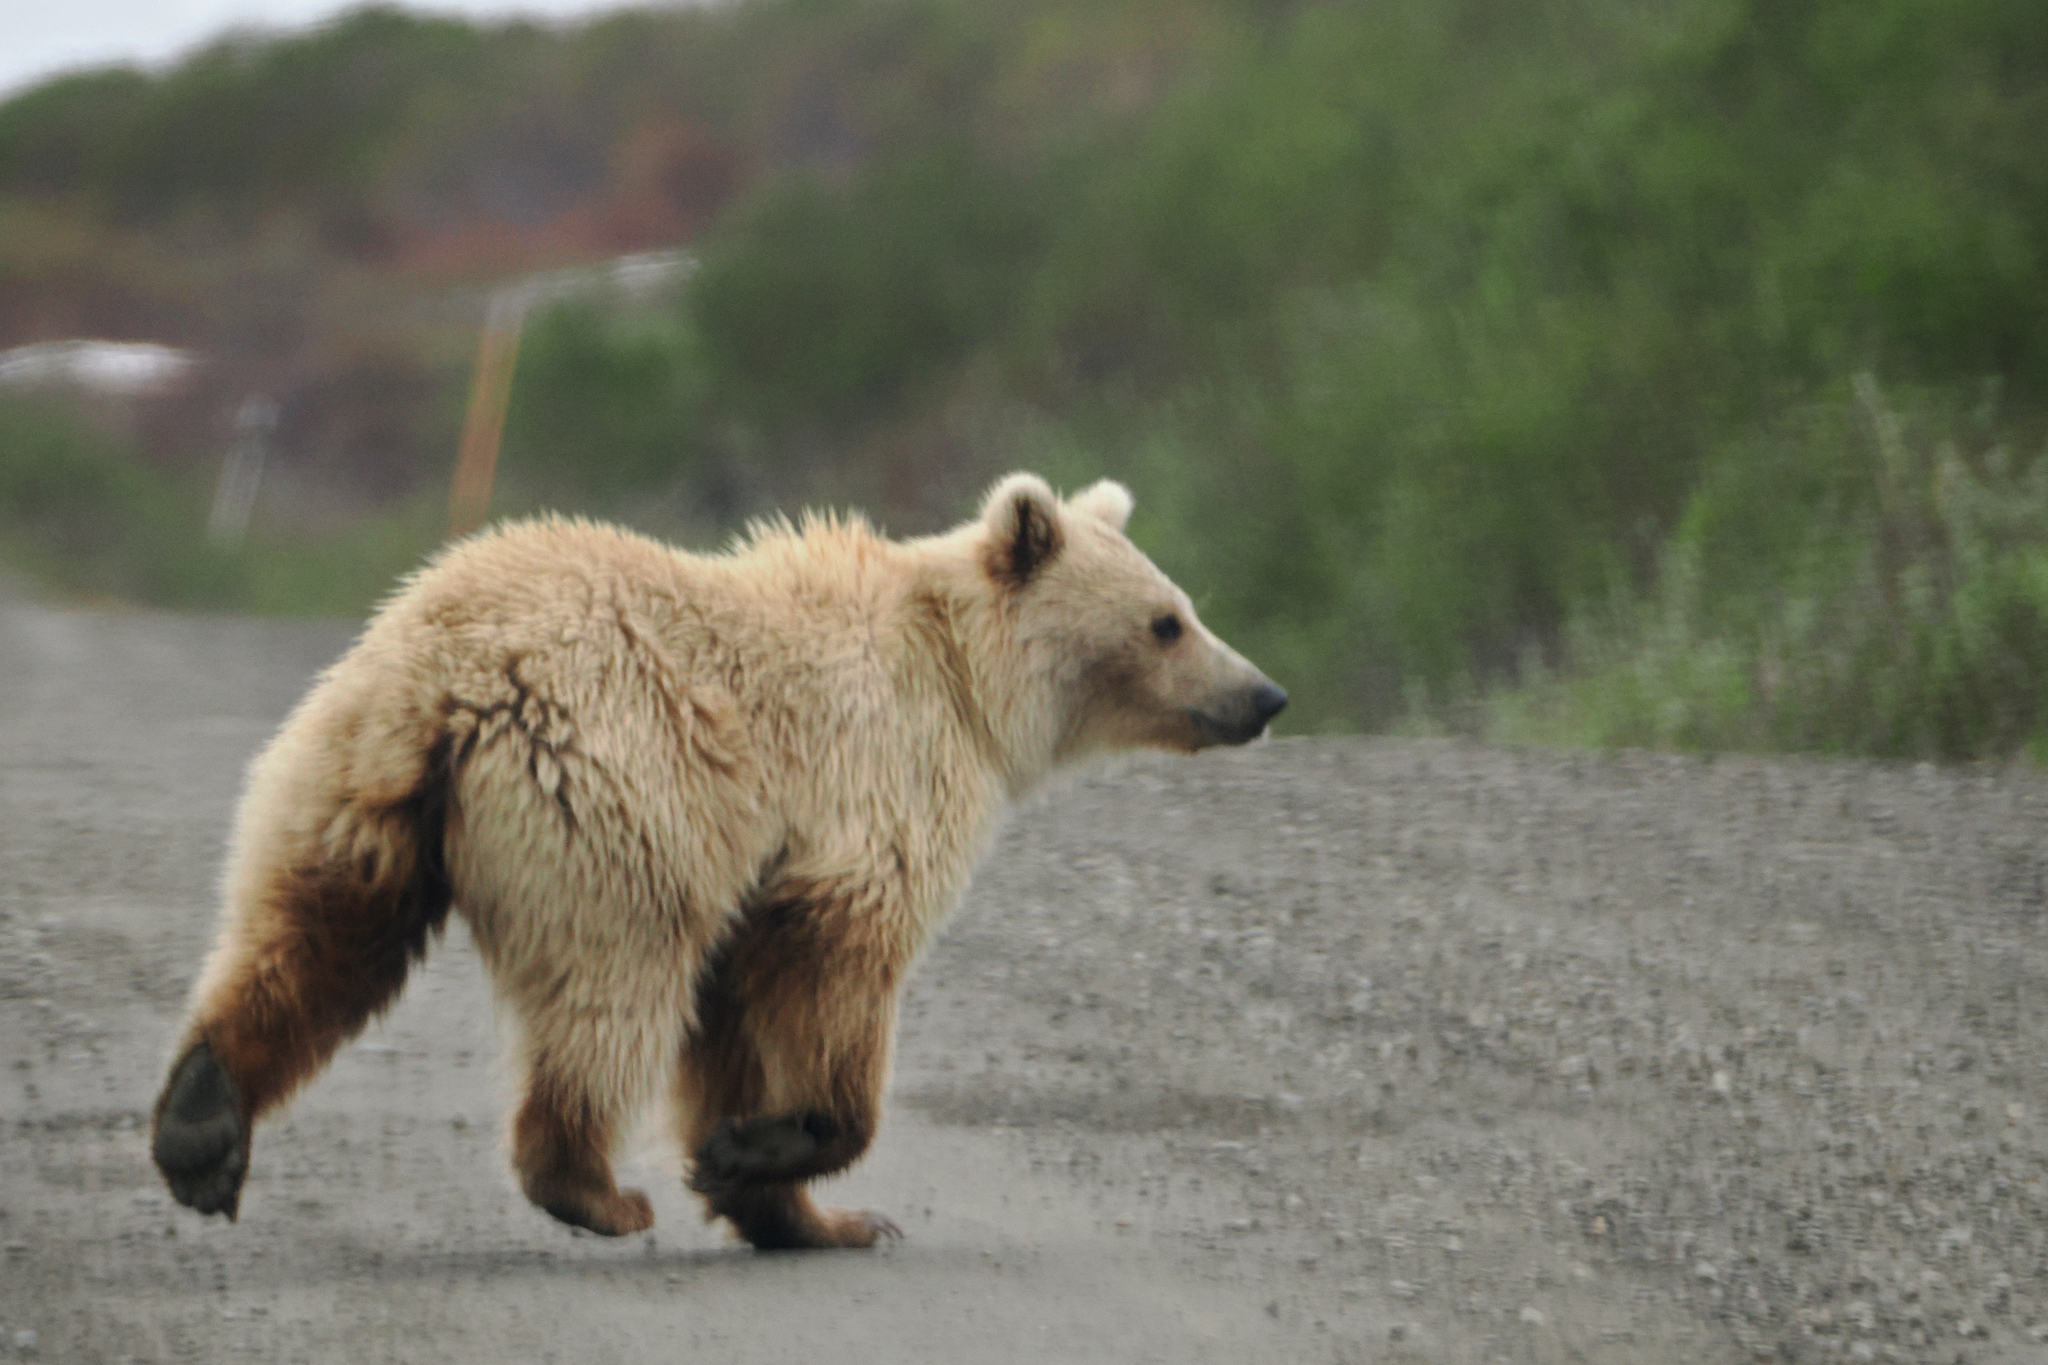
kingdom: Animalia
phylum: Chordata
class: Mammalia
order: Carnivora
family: Ursidae
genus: Ursus
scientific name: Ursus arctos
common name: Brown bear
